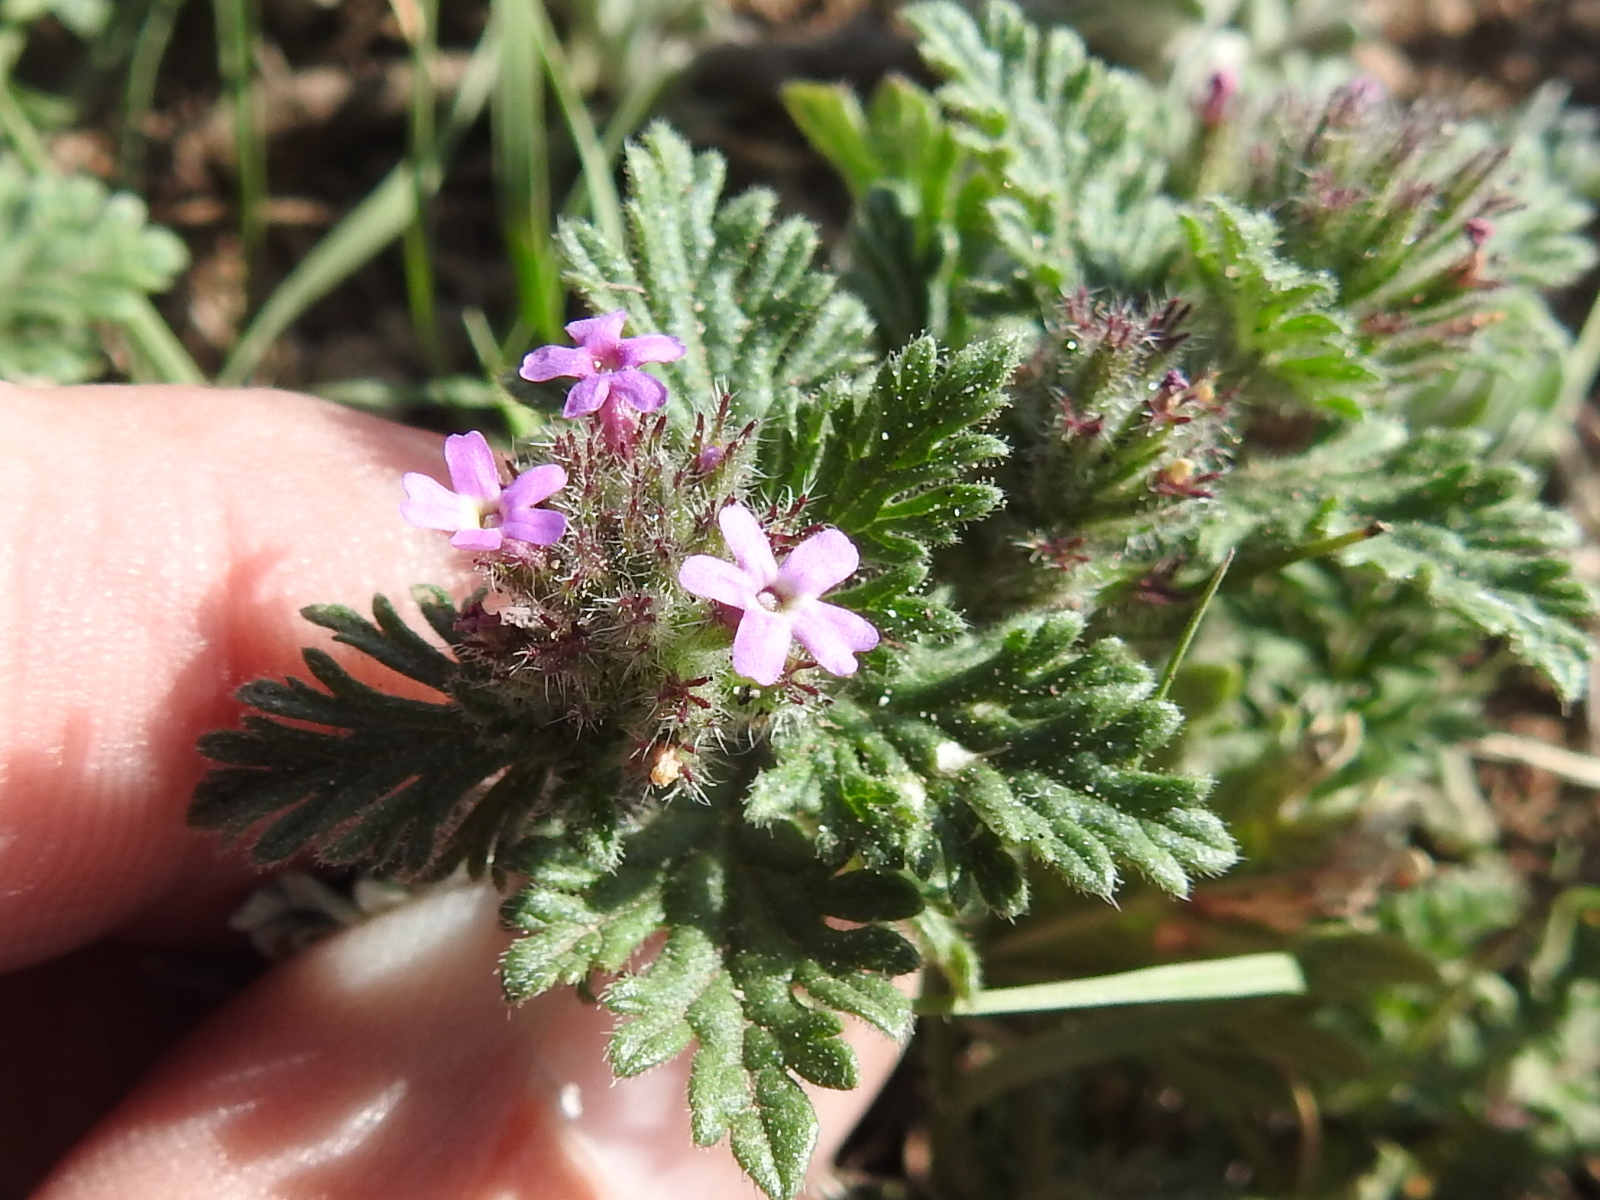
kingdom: Plantae
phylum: Tracheophyta
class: Magnoliopsida
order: Lamiales
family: Verbenaceae
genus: Verbena
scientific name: Verbena pumila
